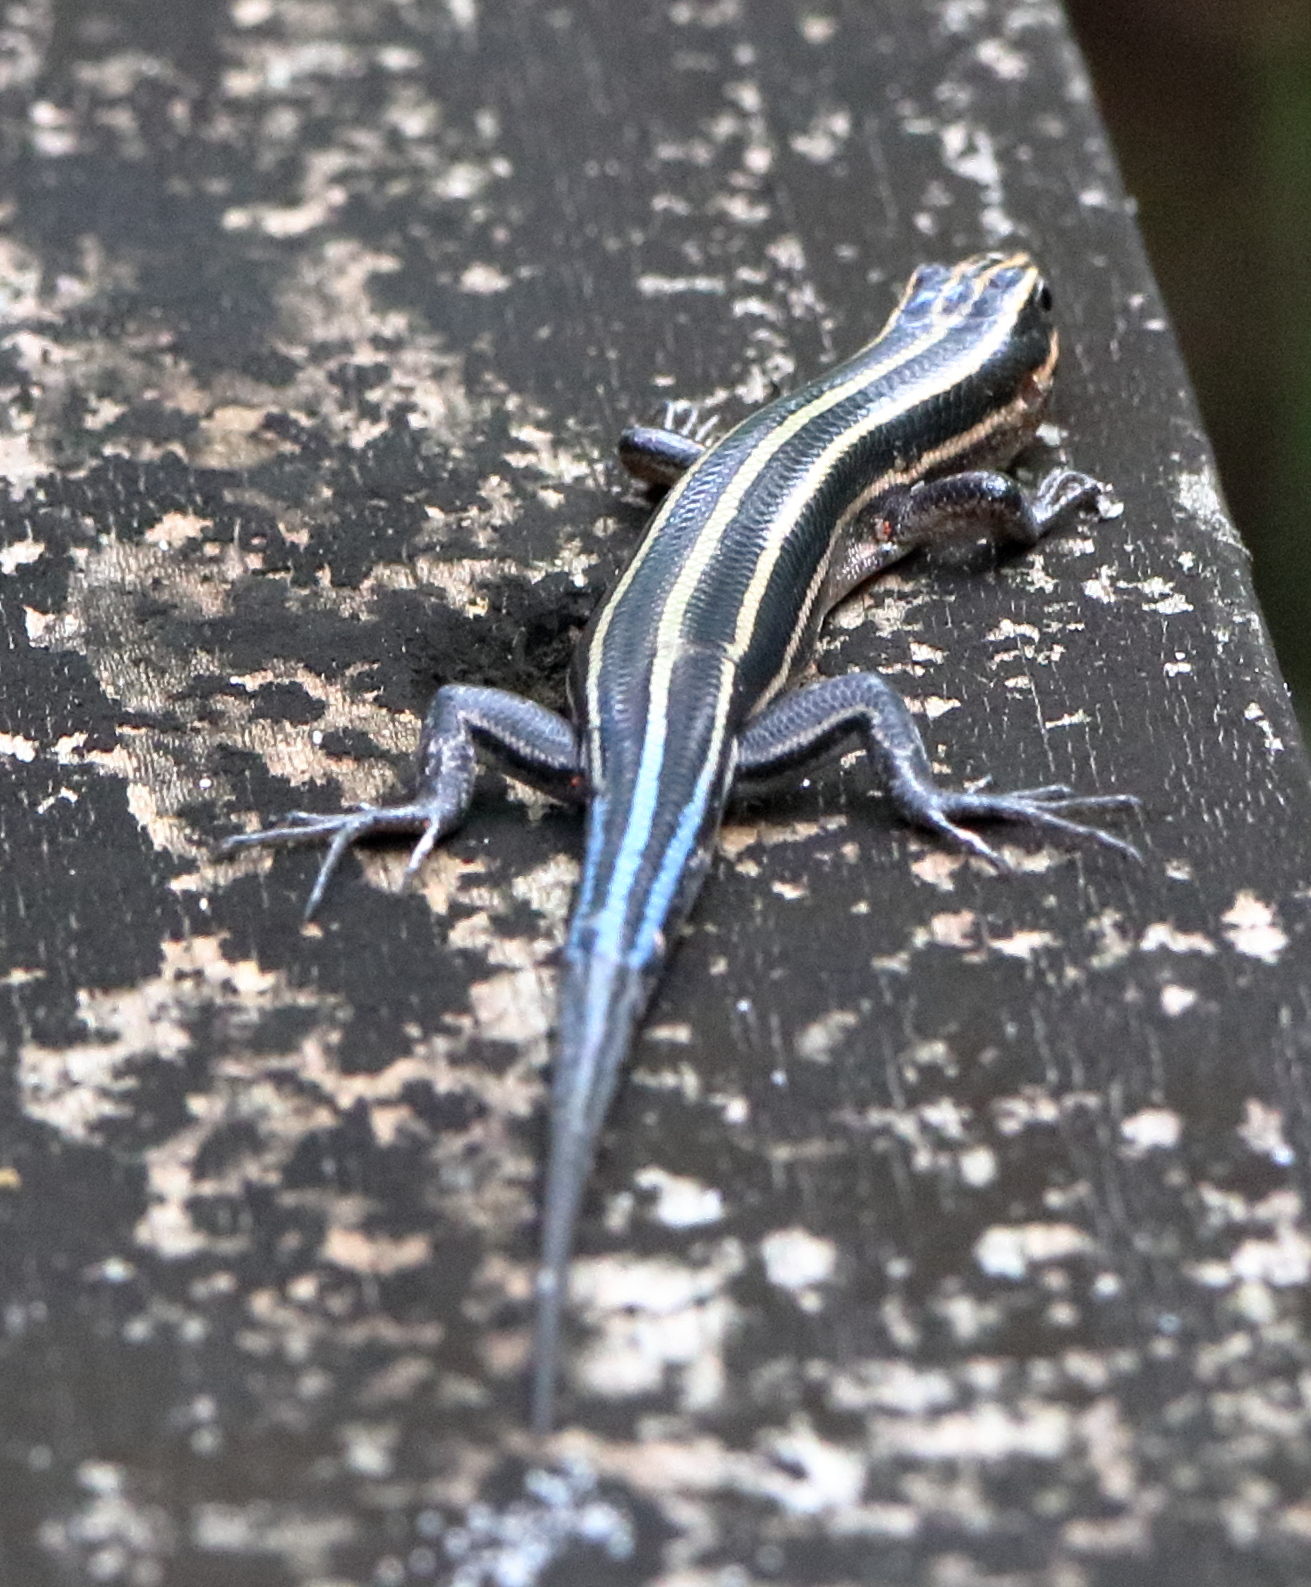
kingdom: Animalia
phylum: Chordata
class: Squamata
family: Scincidae
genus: Plestiodon
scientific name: Plestiodon fasciatus
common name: Five-lined skink
